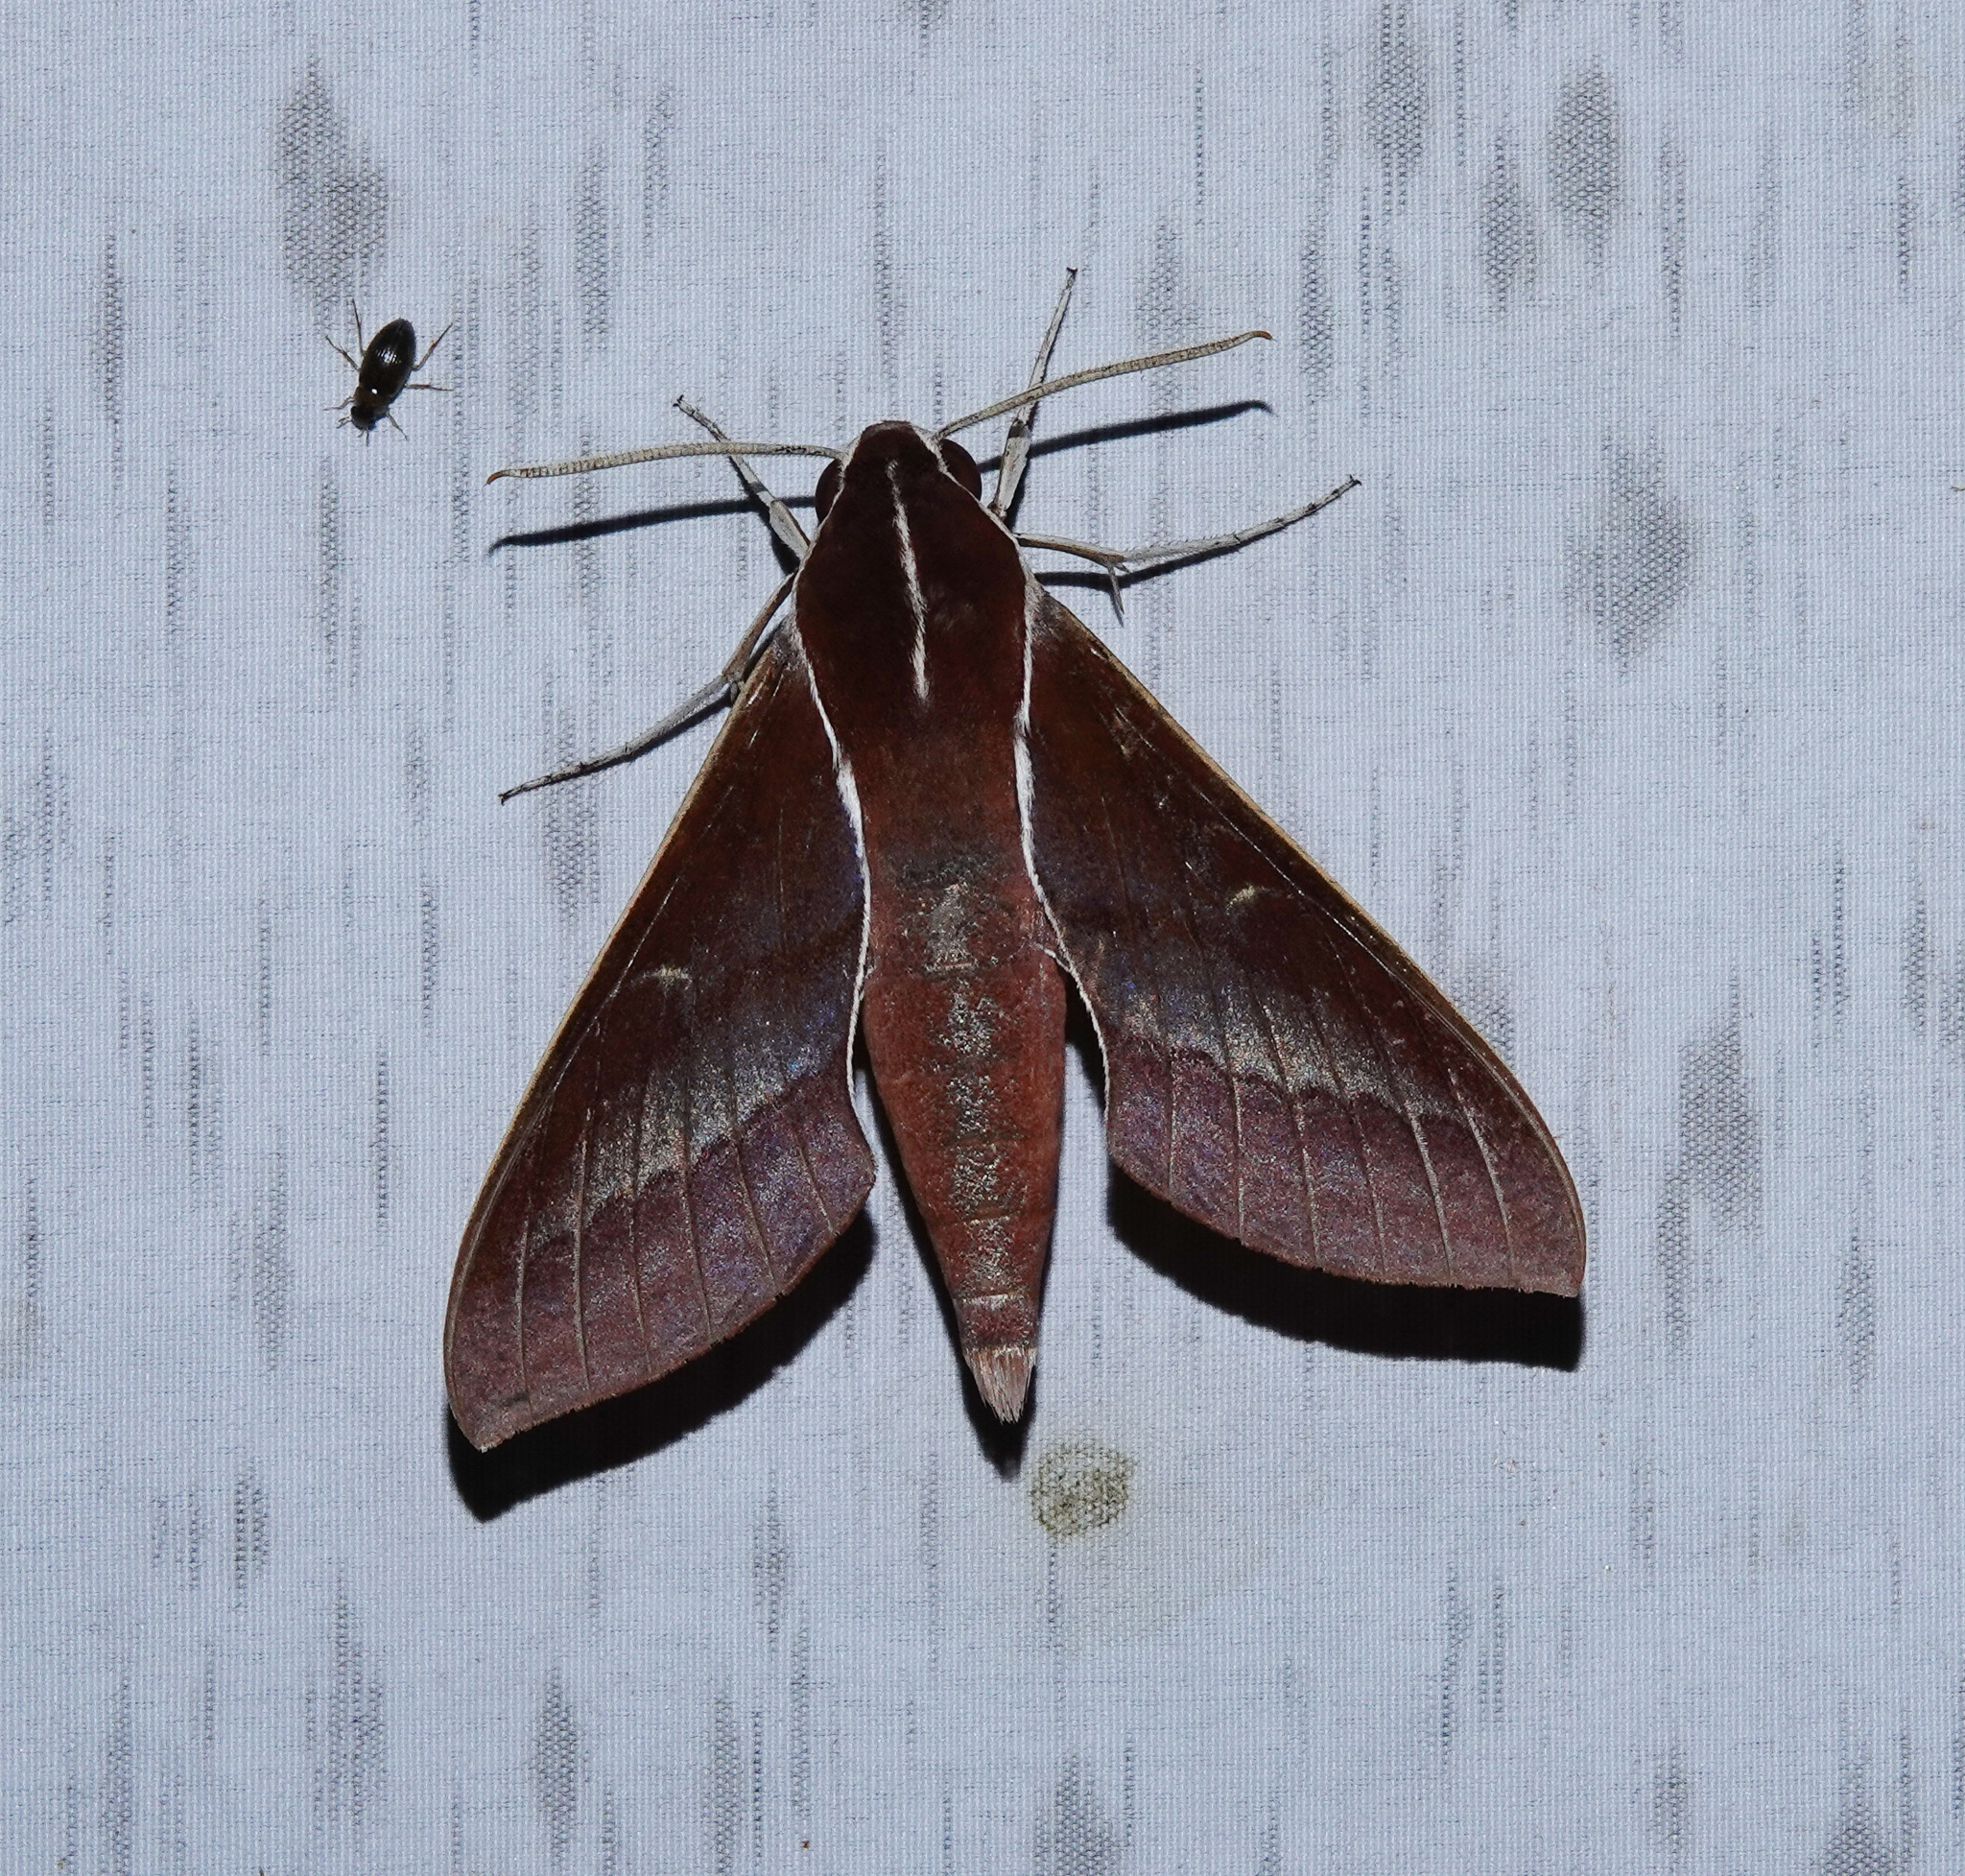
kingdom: Animalia
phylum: Arthropoda
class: Insecta
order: Lepidoptera
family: Sphingidae
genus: Theretra
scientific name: Theretra pallicosta
